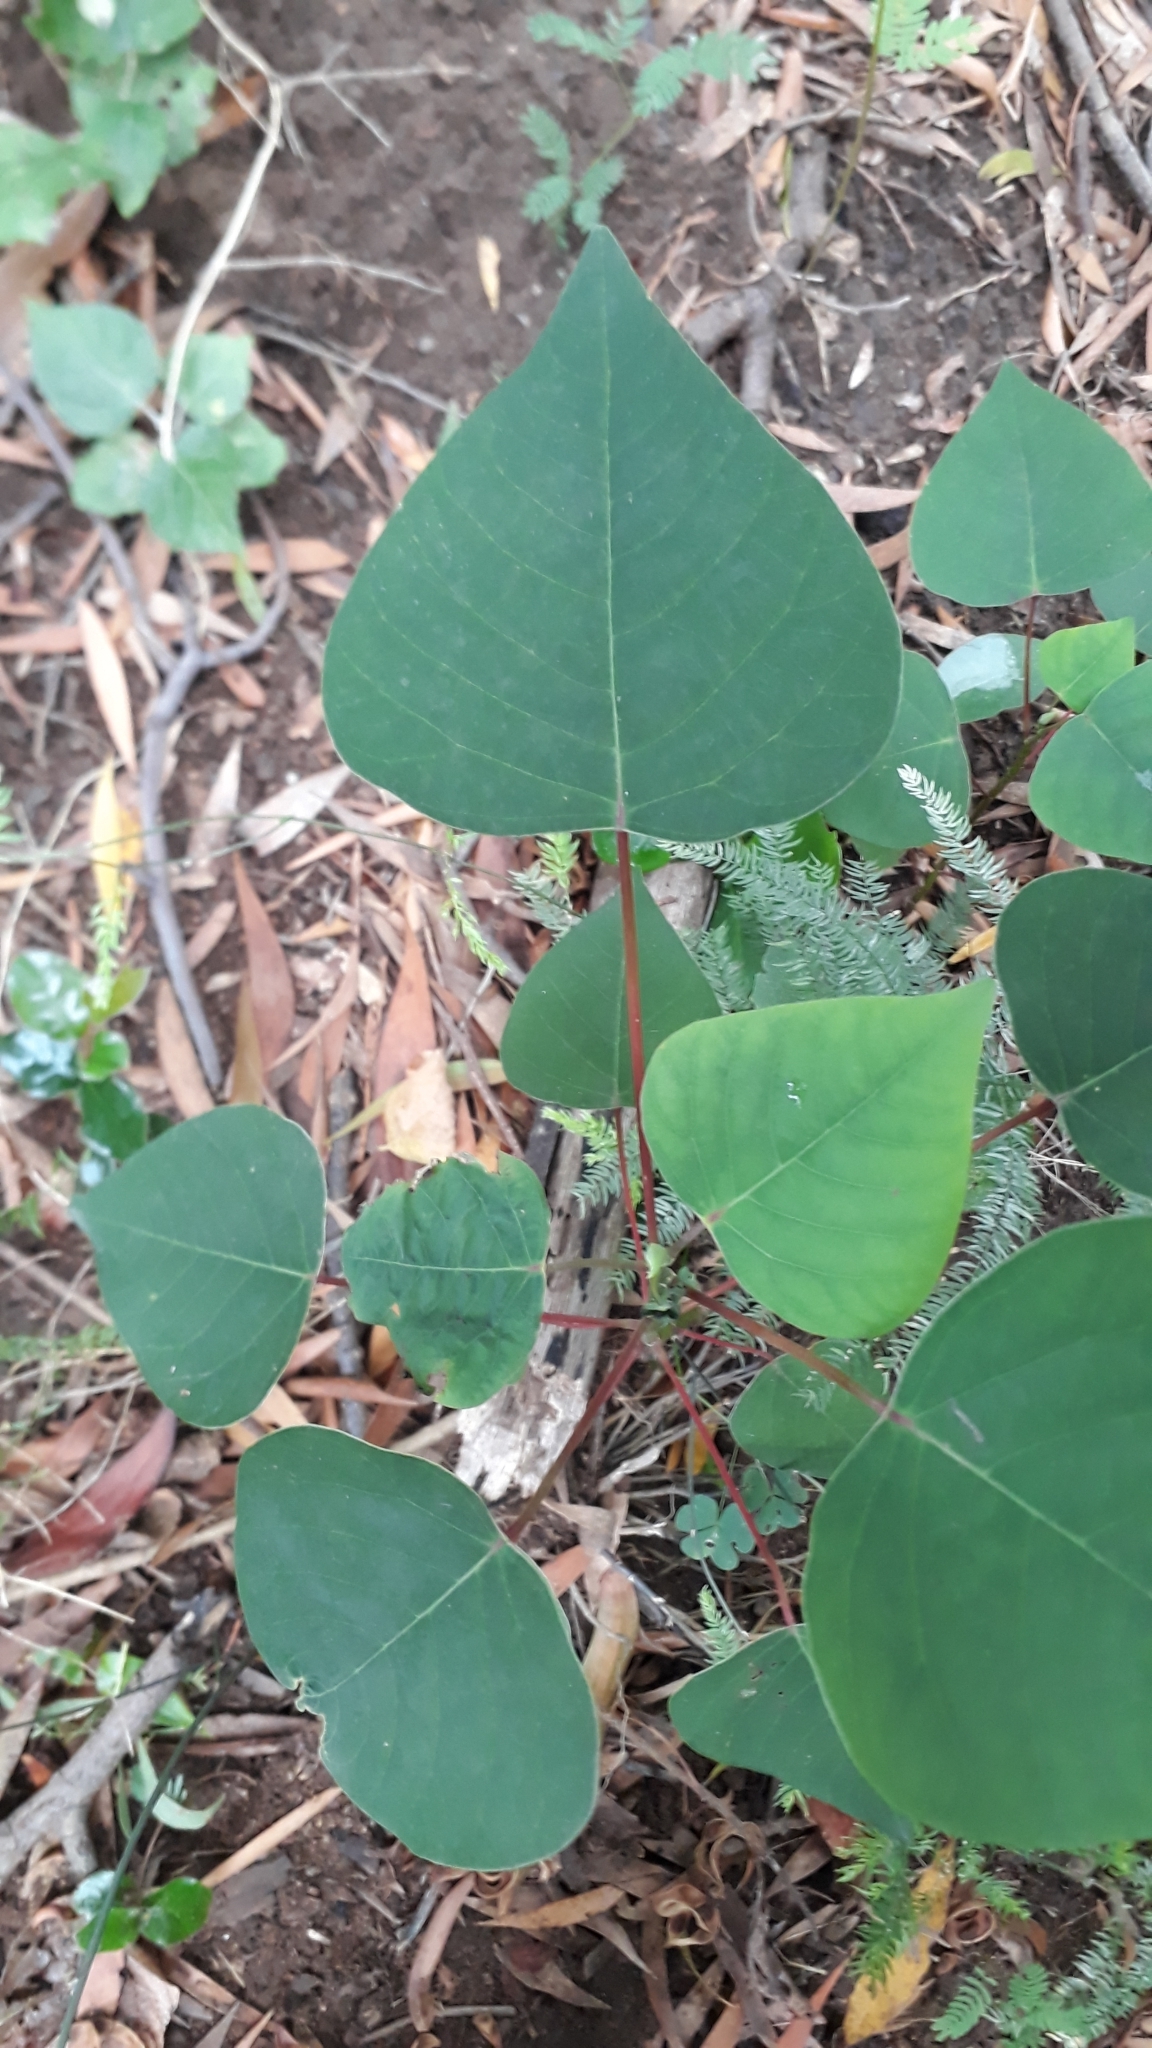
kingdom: Plantae
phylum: Tracheophyta
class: Magnoliopsida
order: Malpighiales
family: Euphorbiaceae
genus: Homalanthus
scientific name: Homalanthus populifolius
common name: Queensland poplar
